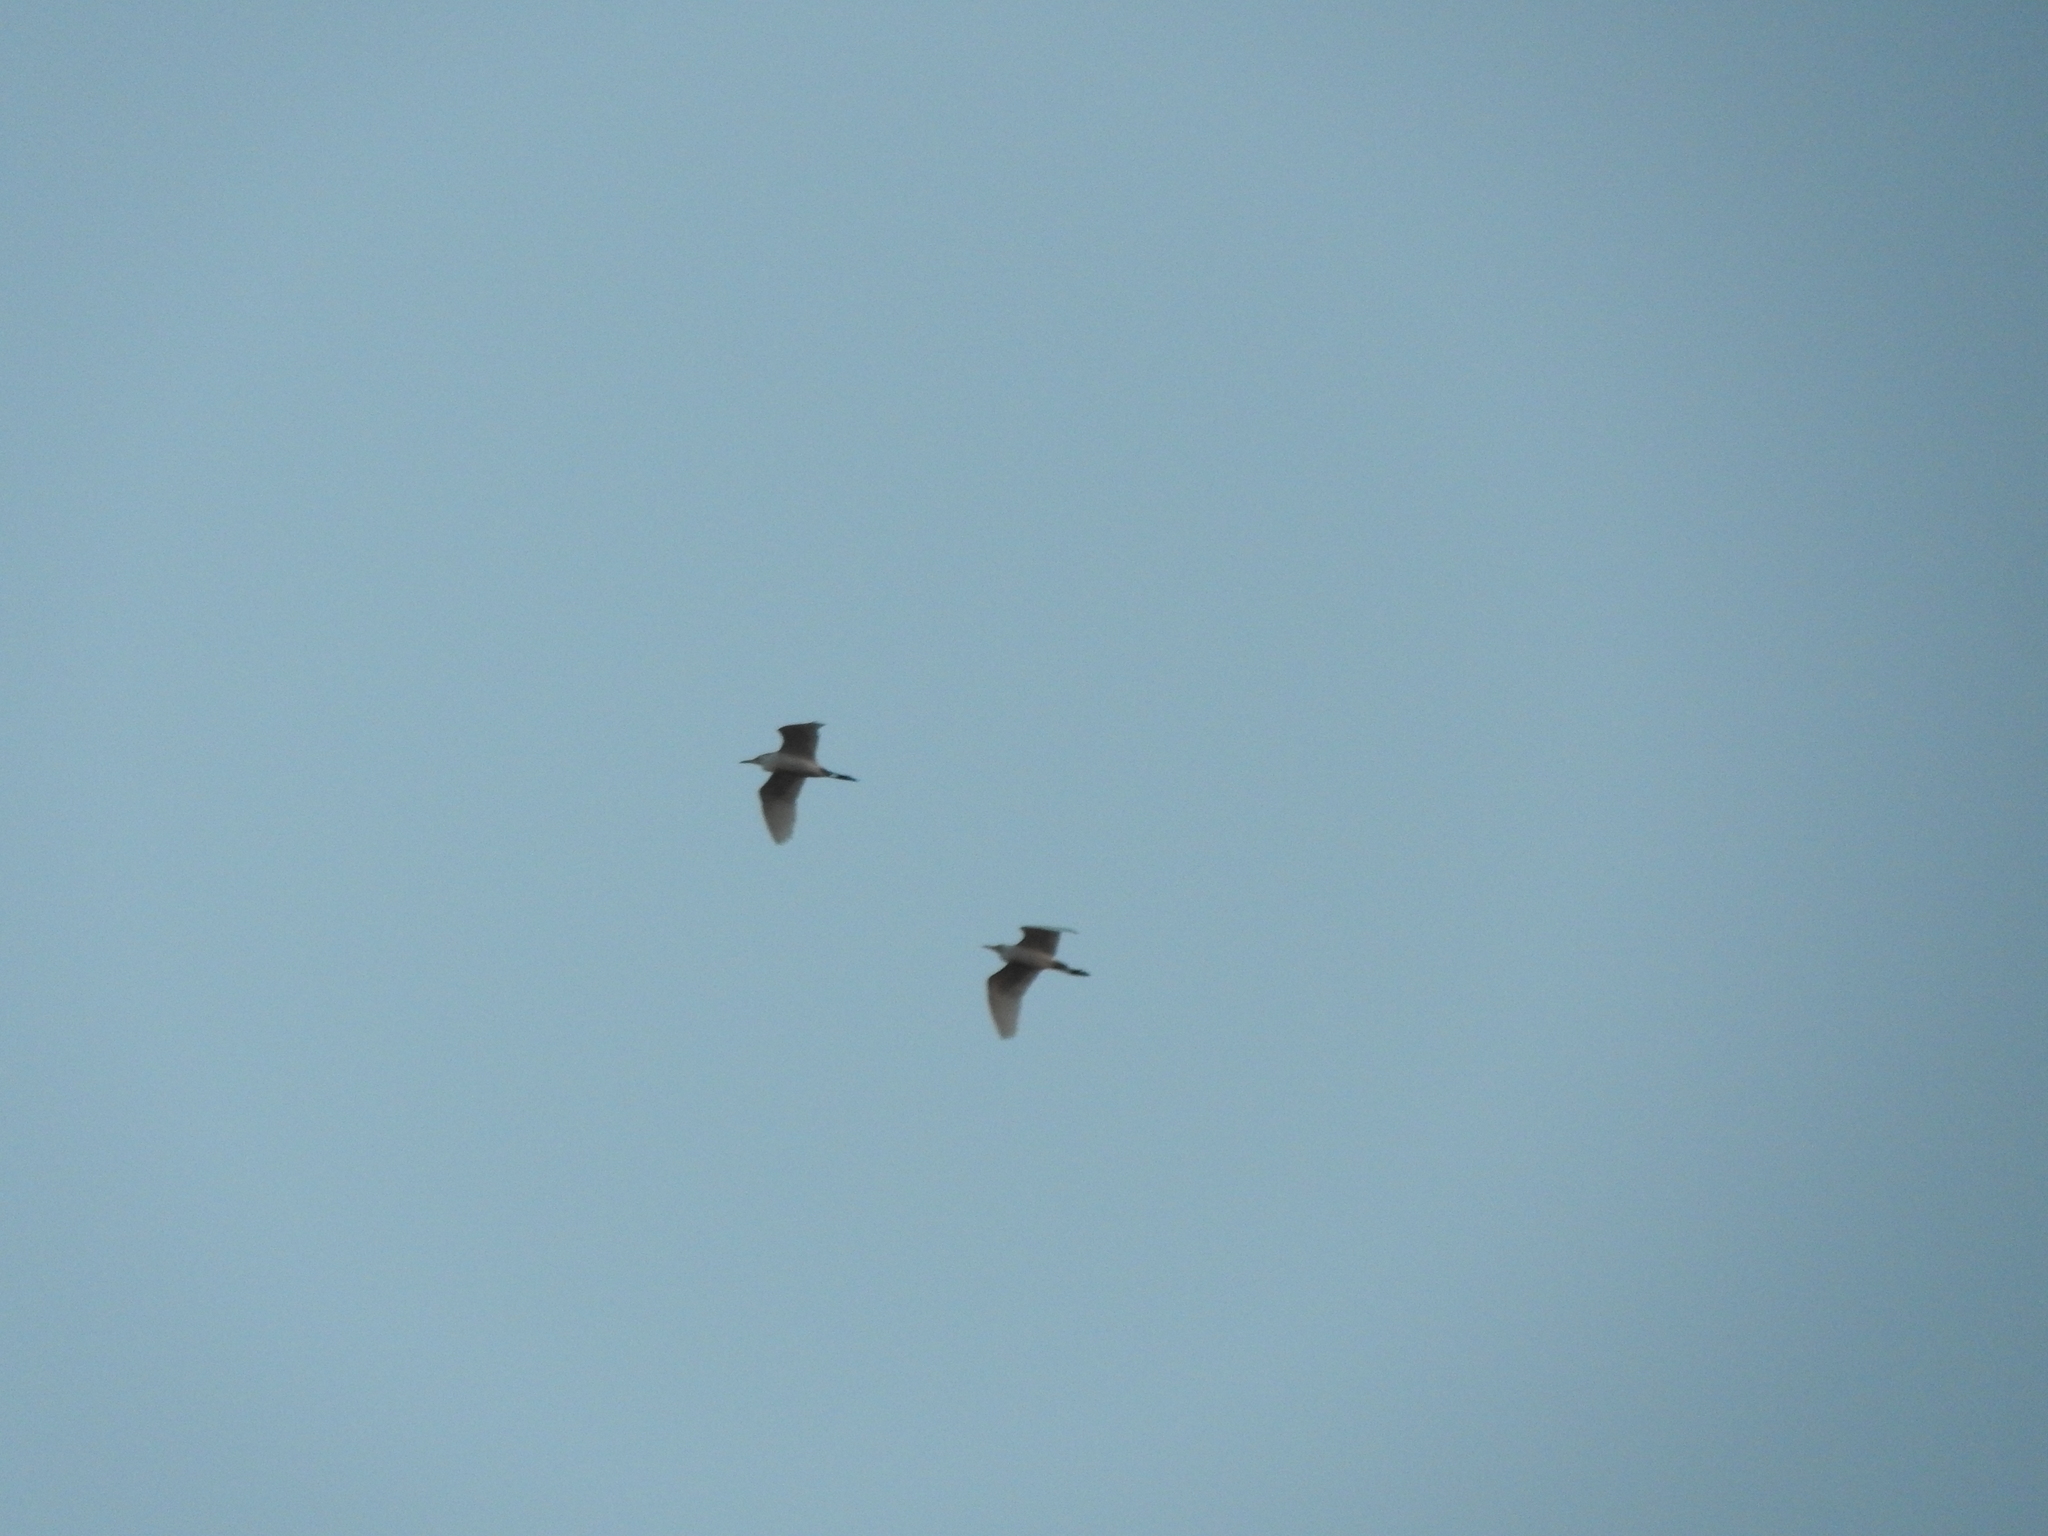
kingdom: Animalia
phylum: Chordata
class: Aves
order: Pelecaniformes
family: Ardeidae
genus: Bubulcus
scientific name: Bubulcus ibis
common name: Cattle egret
